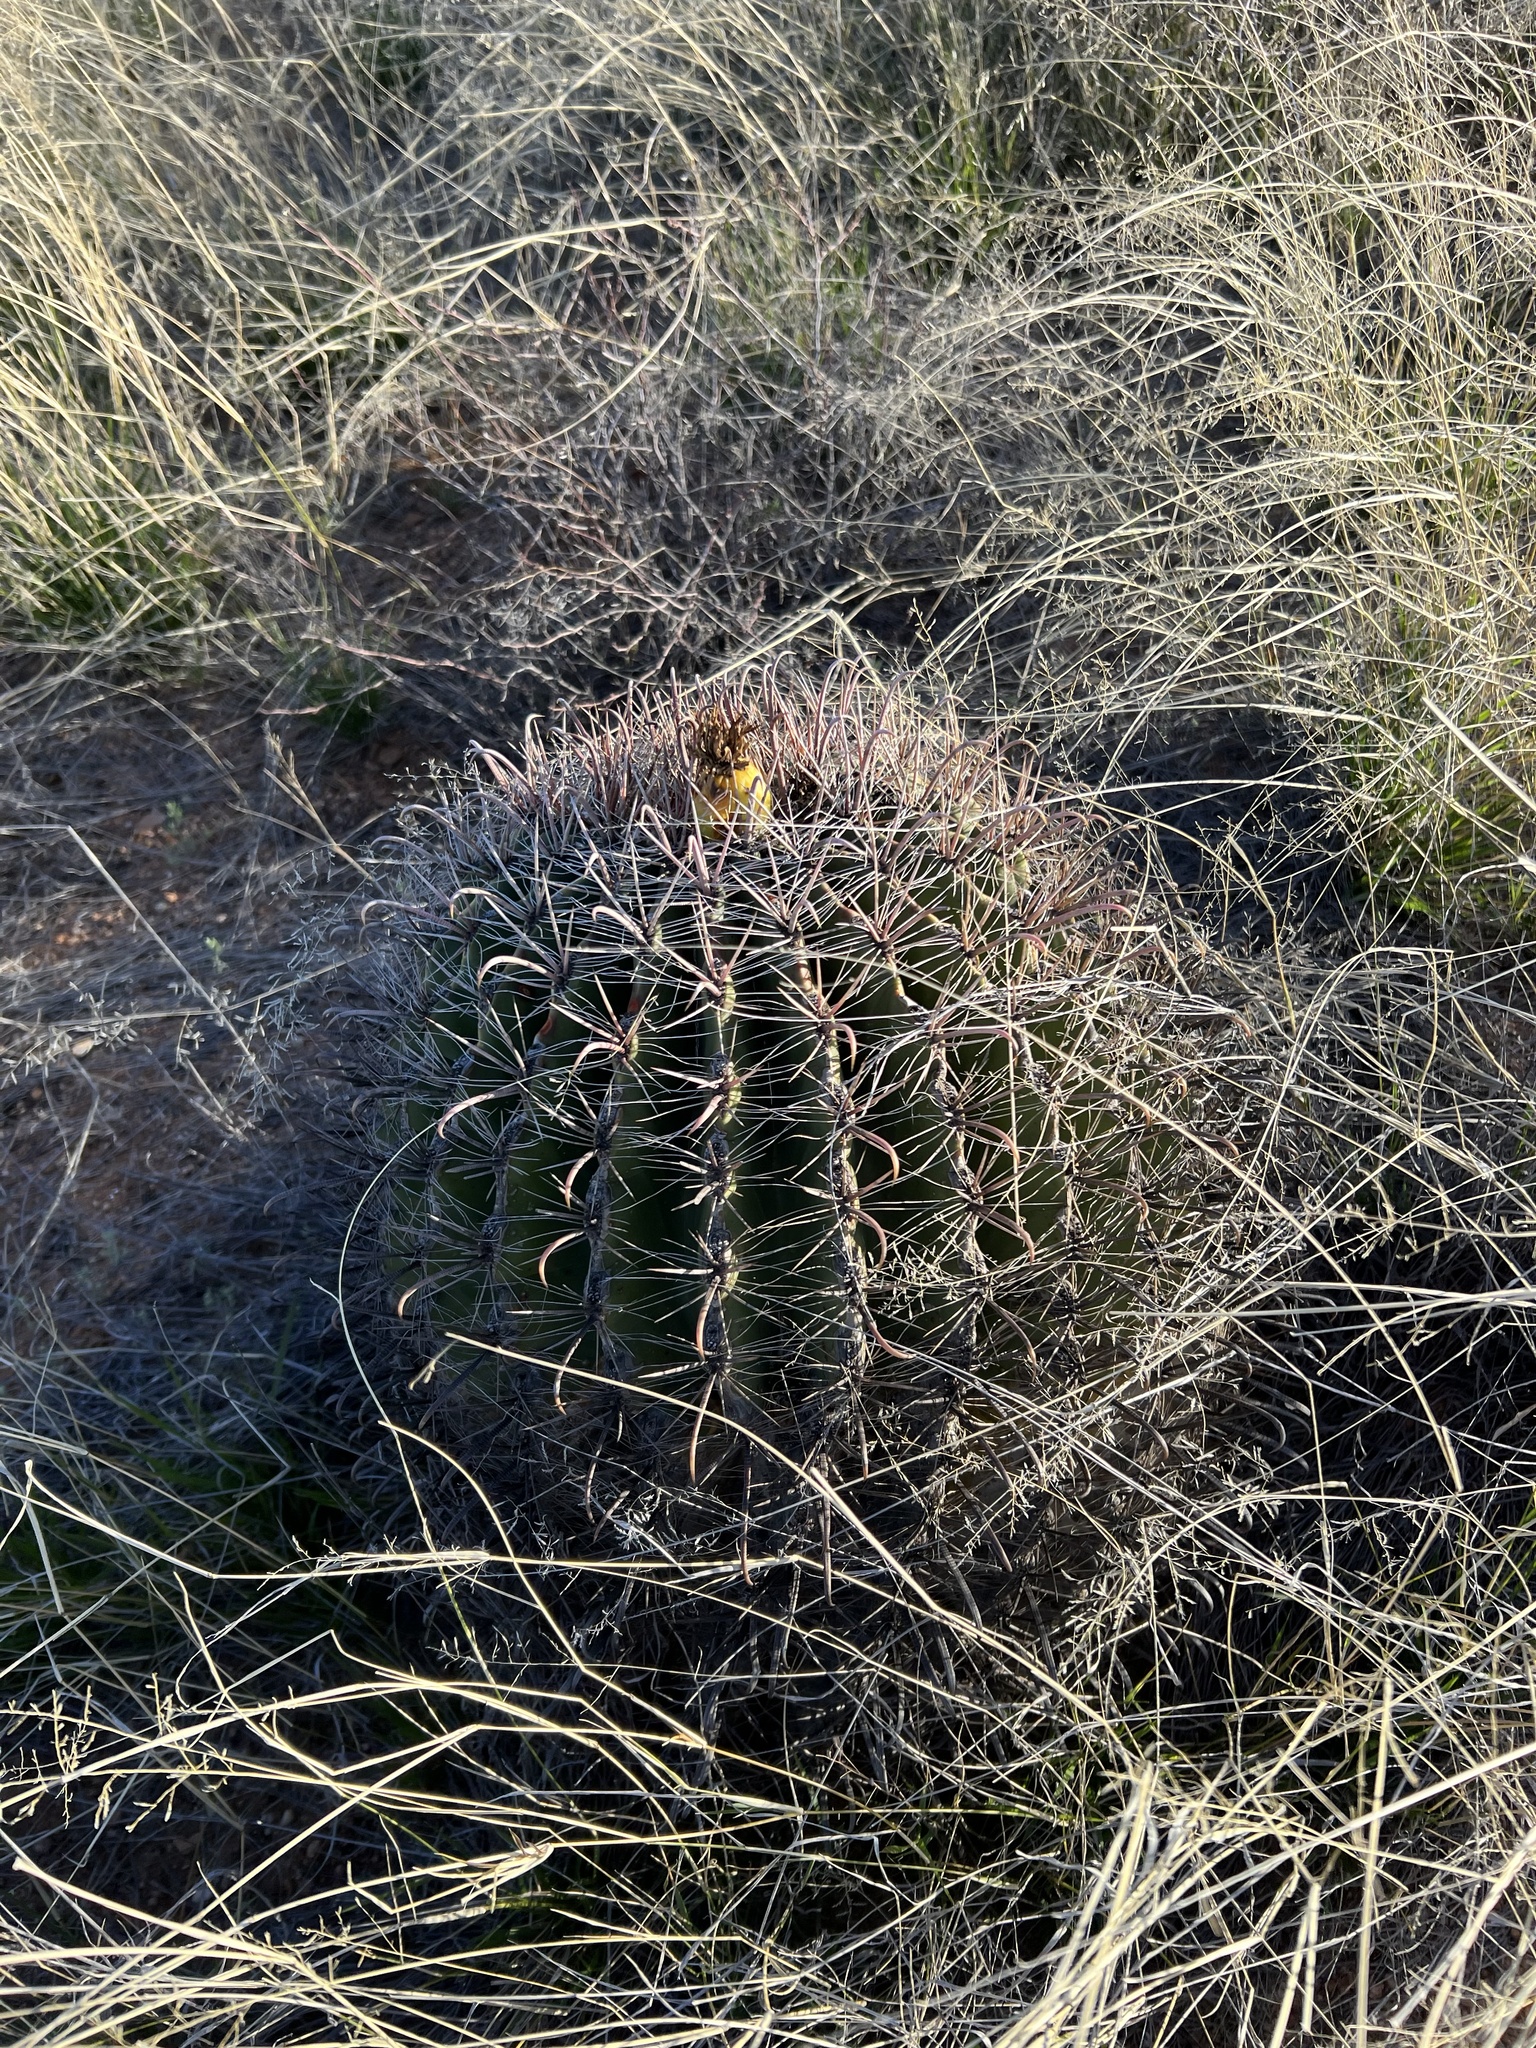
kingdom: Plantae
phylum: Tracheophyta
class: Magnoliopsida
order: Caryophyllales
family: Cactaceae
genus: Ferocactus
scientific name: Ferocactus wislizeni
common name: Candy barrel cactus
